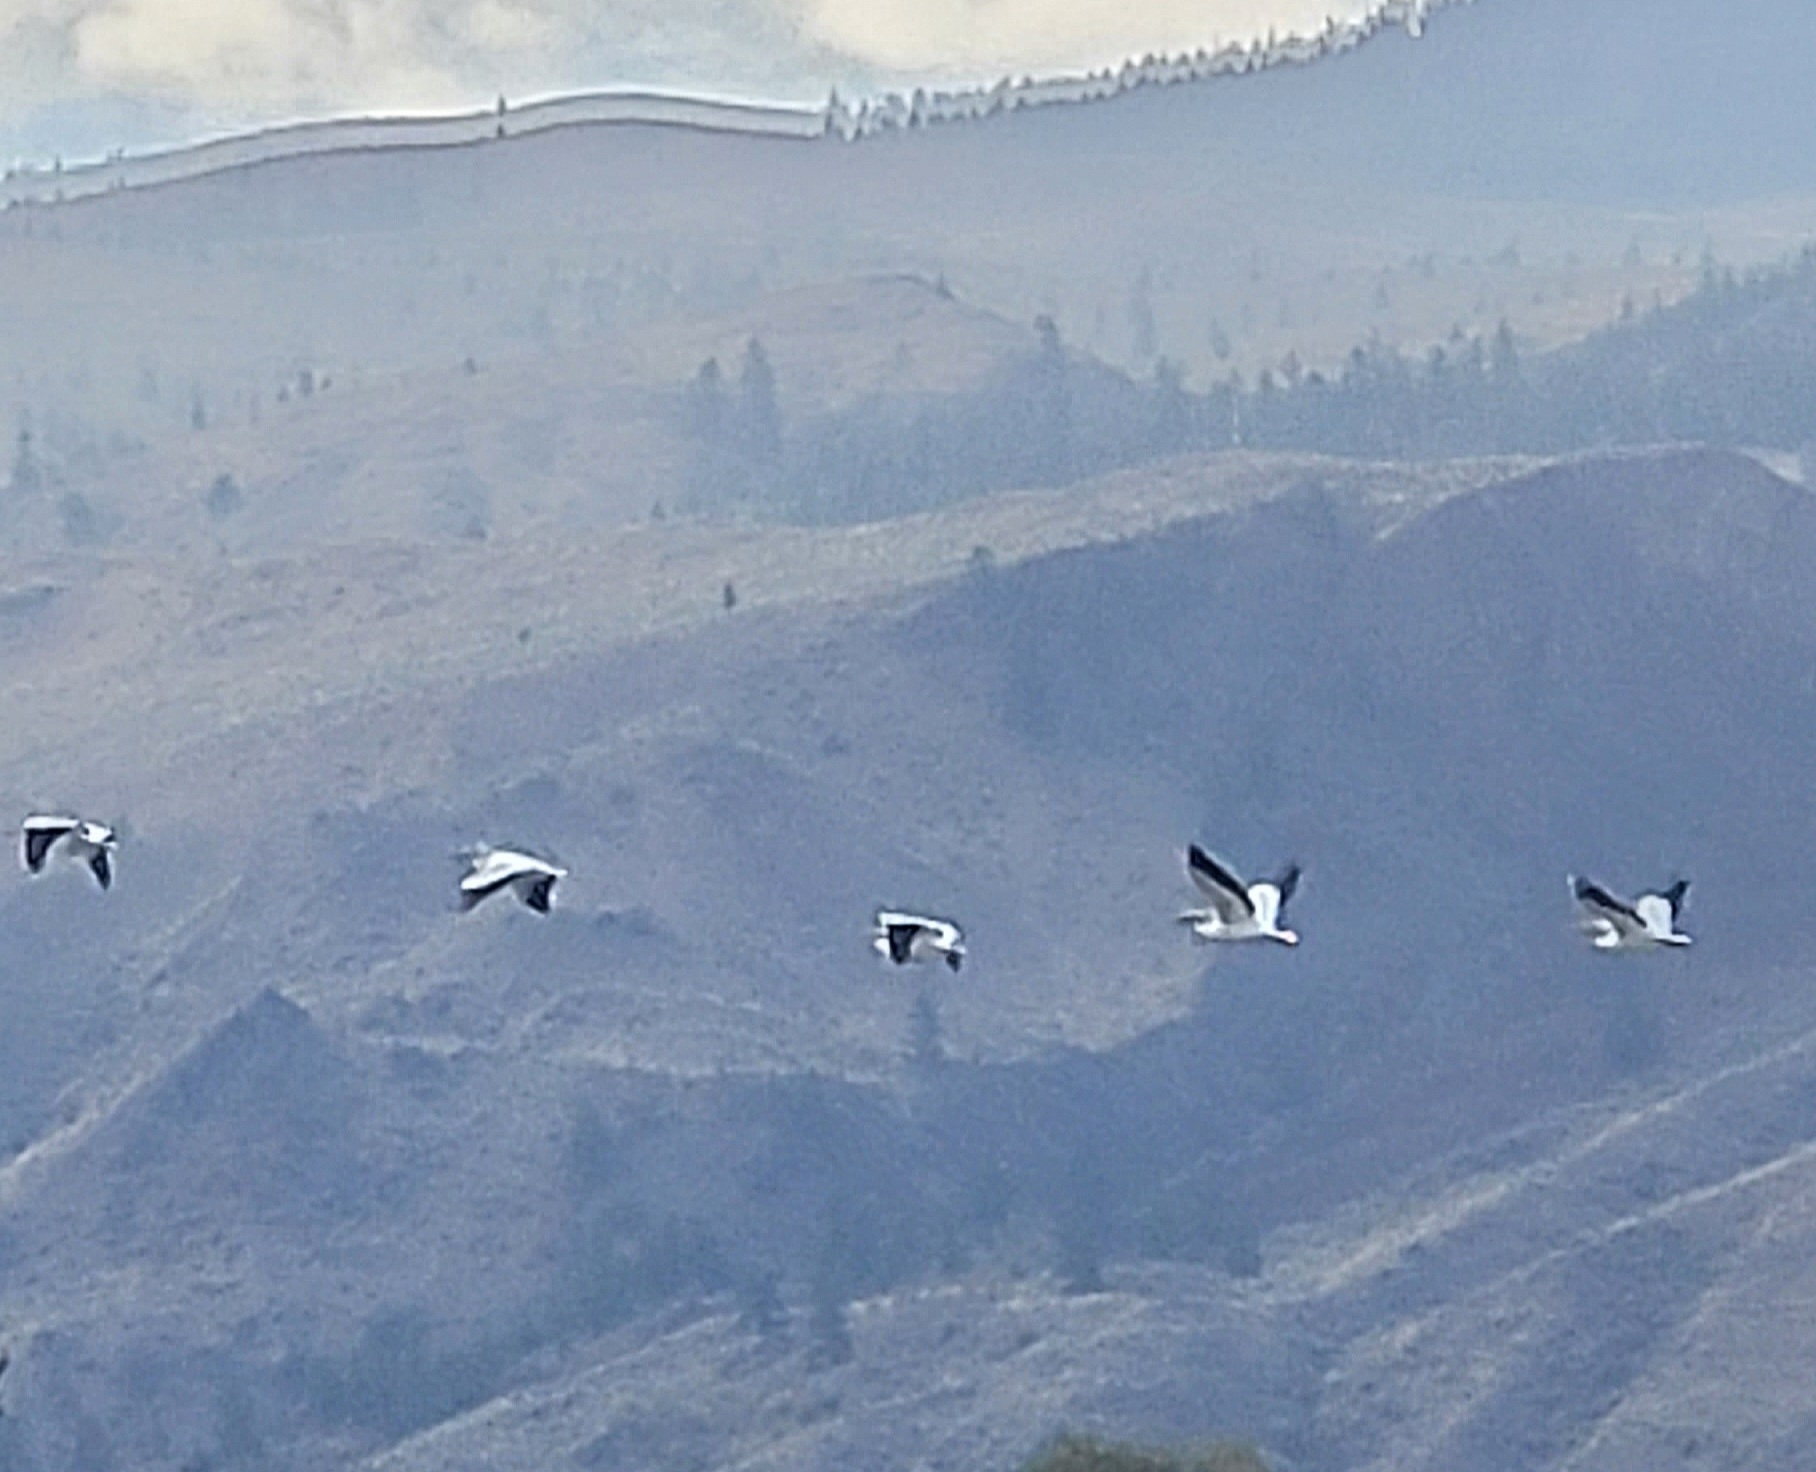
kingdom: Animalia
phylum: Chordata
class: Aves
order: Pelecaniformes
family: Pelecanidae
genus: Pelecanus
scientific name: Pelecanus erythrorhynchos
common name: American white pelican
